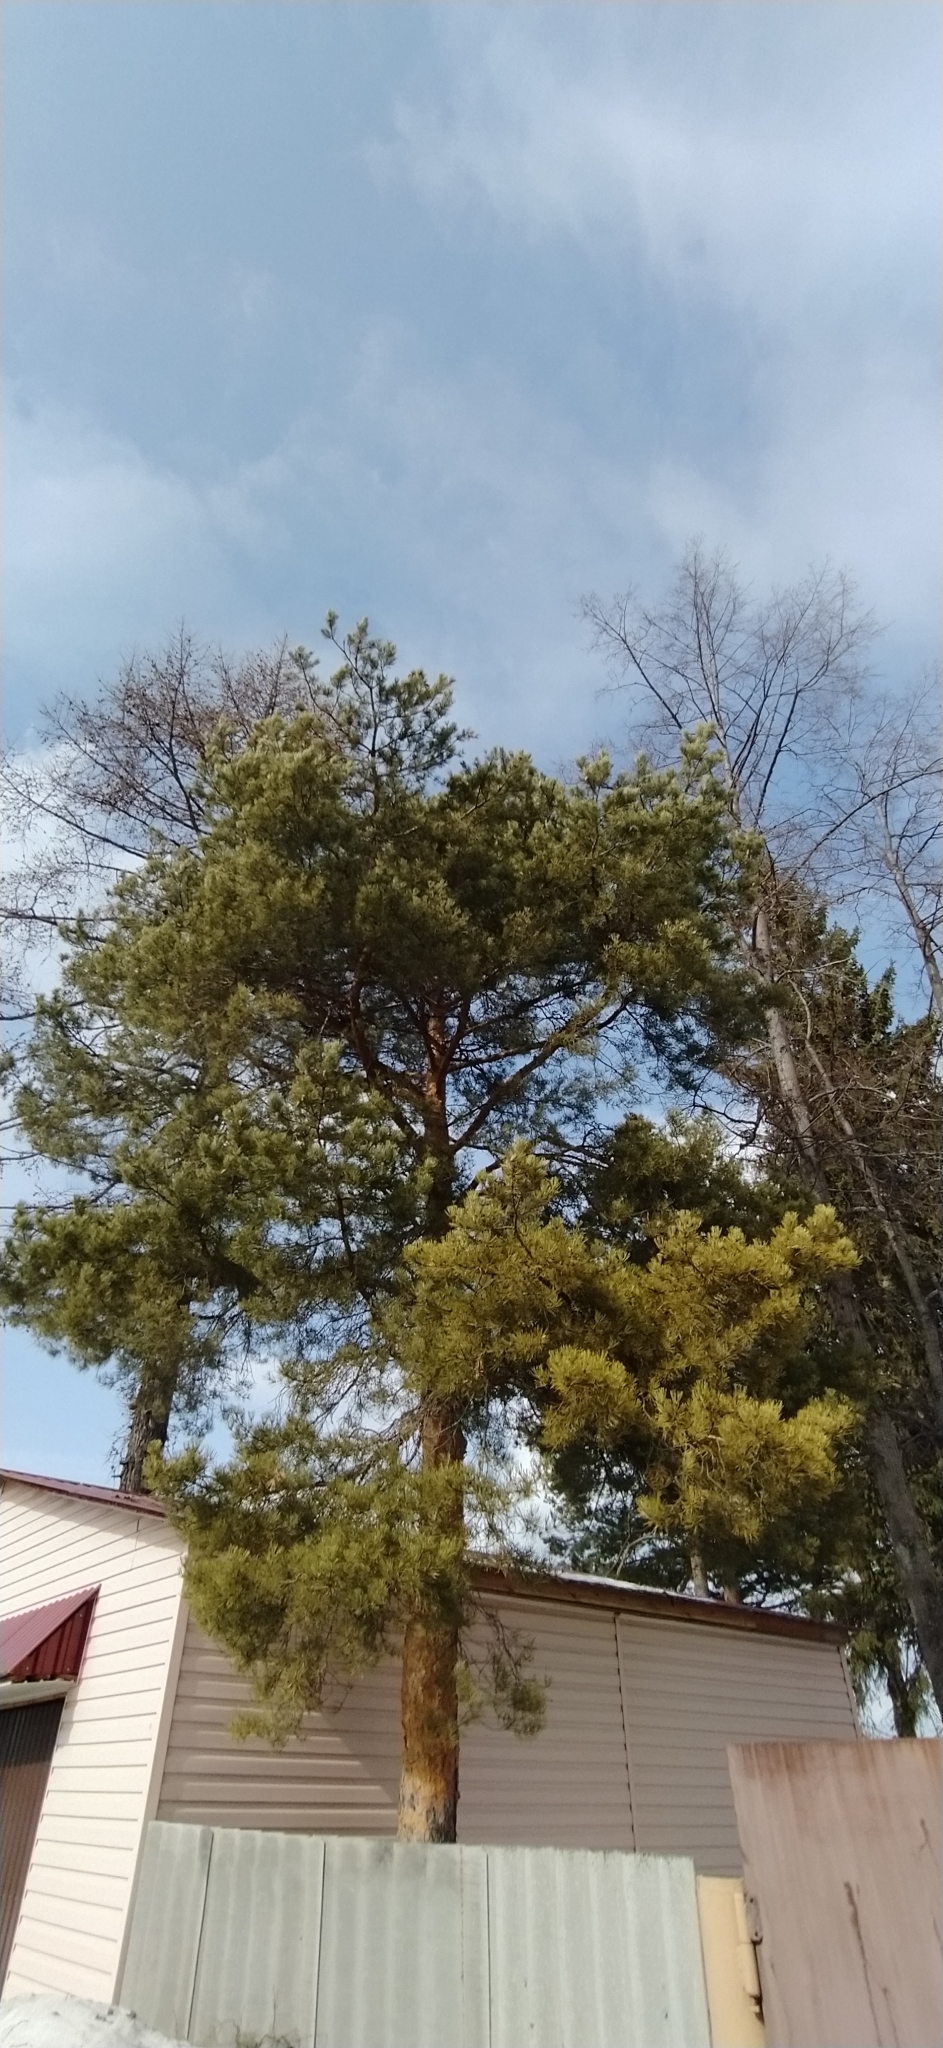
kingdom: Plantae
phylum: Tracheophyta
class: Pinopsida
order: Pinales
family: Pinaceae
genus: Pinus
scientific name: Pinus sylvestris
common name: Scots pine
